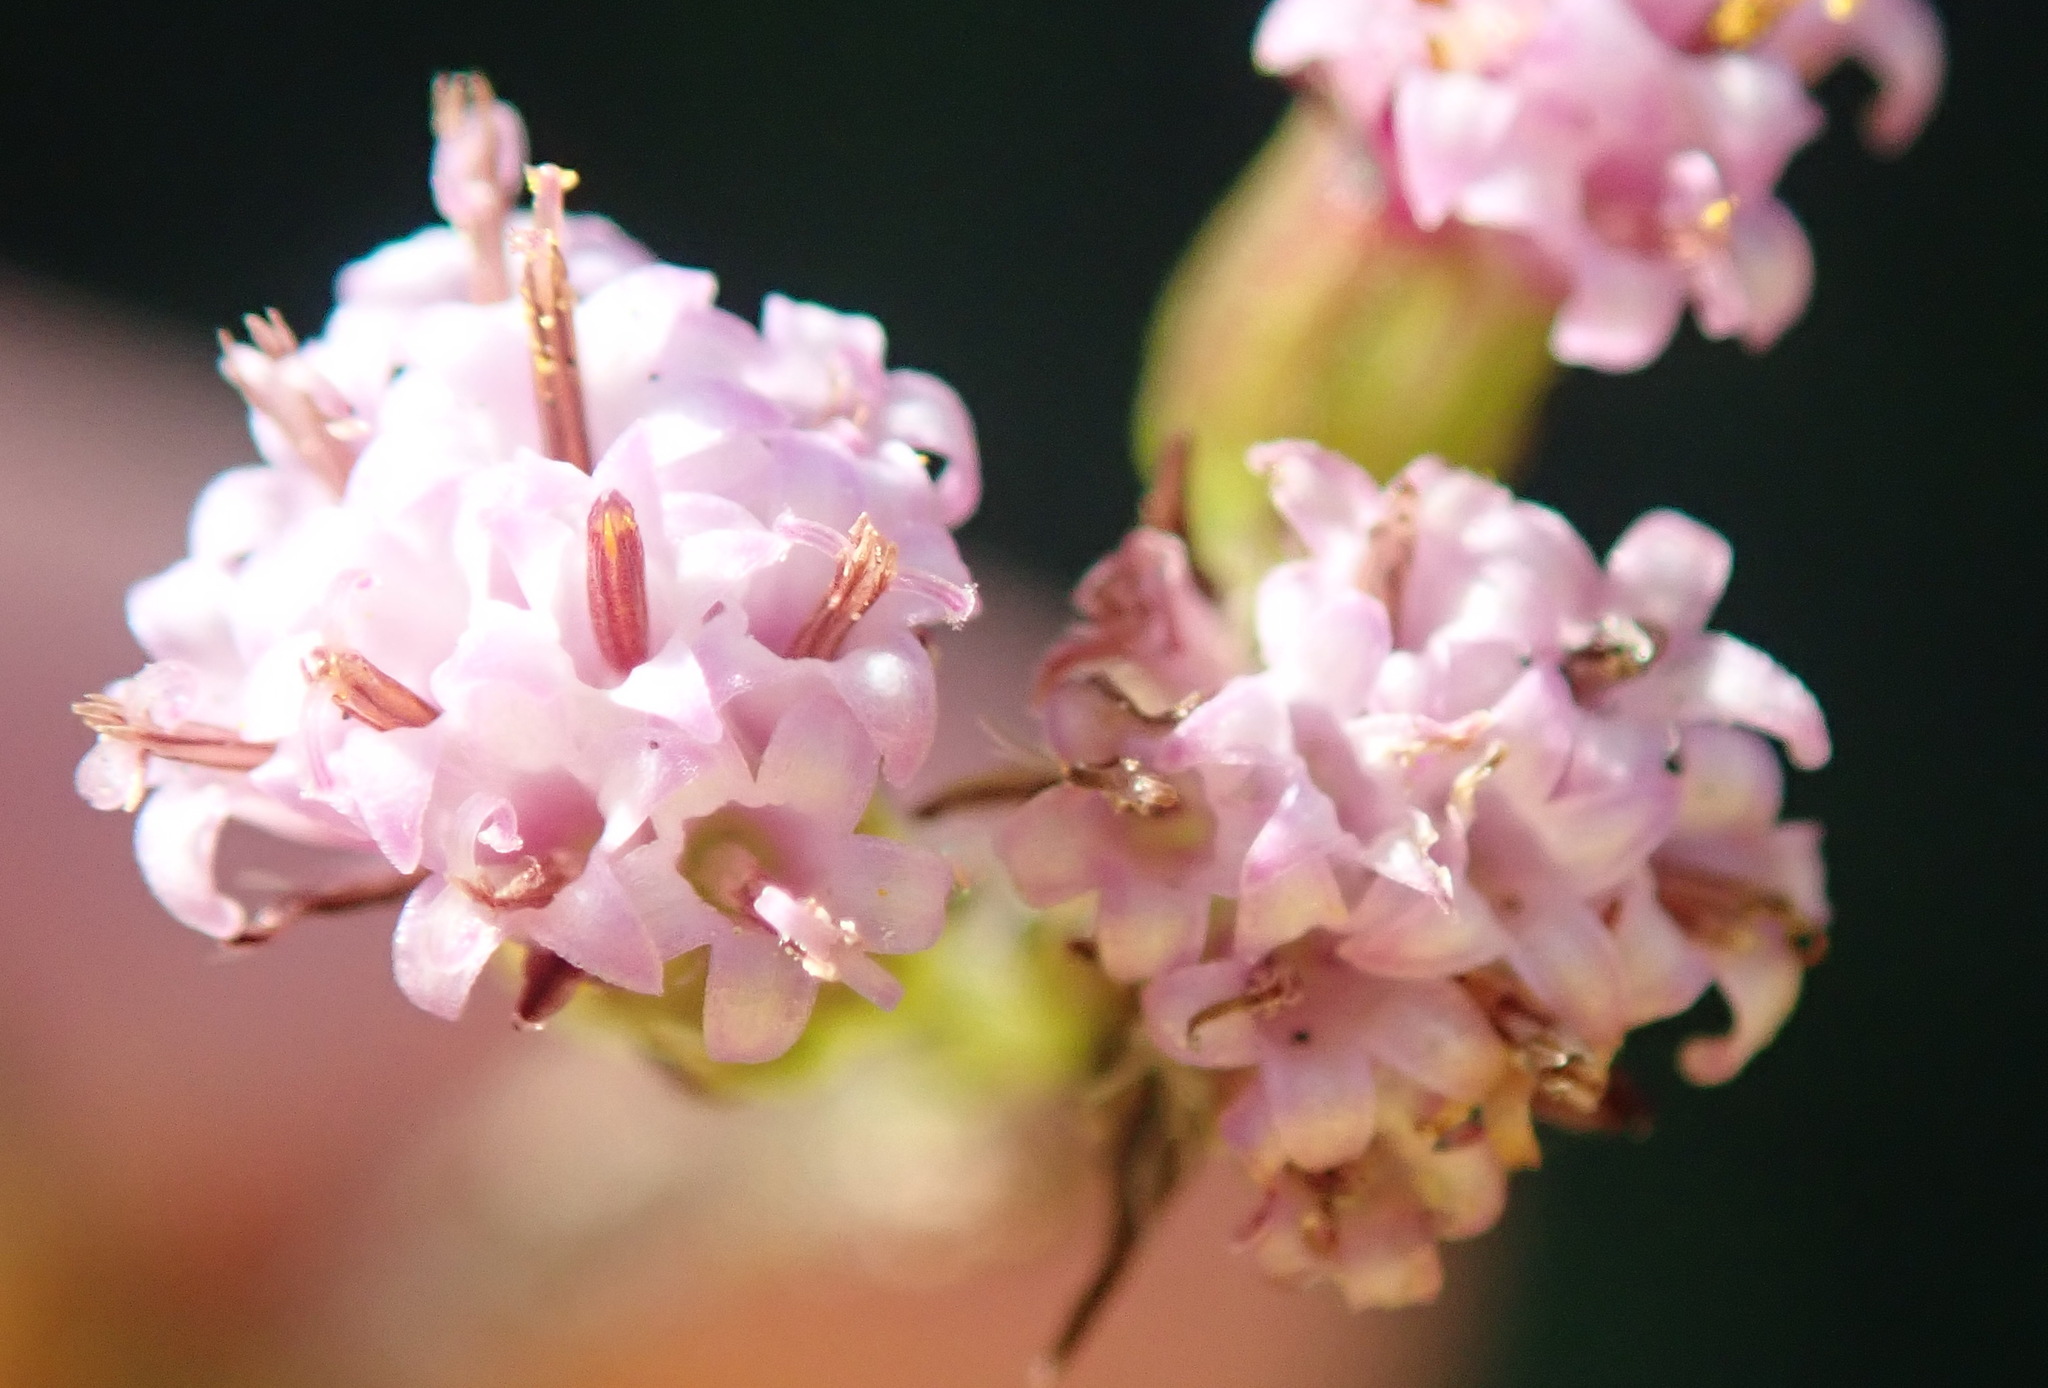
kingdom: Plantae
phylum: Tracheophyta
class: Magnoliopsida
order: Asterales
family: Asteraceae
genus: Senecio
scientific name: Senecio agapetes
